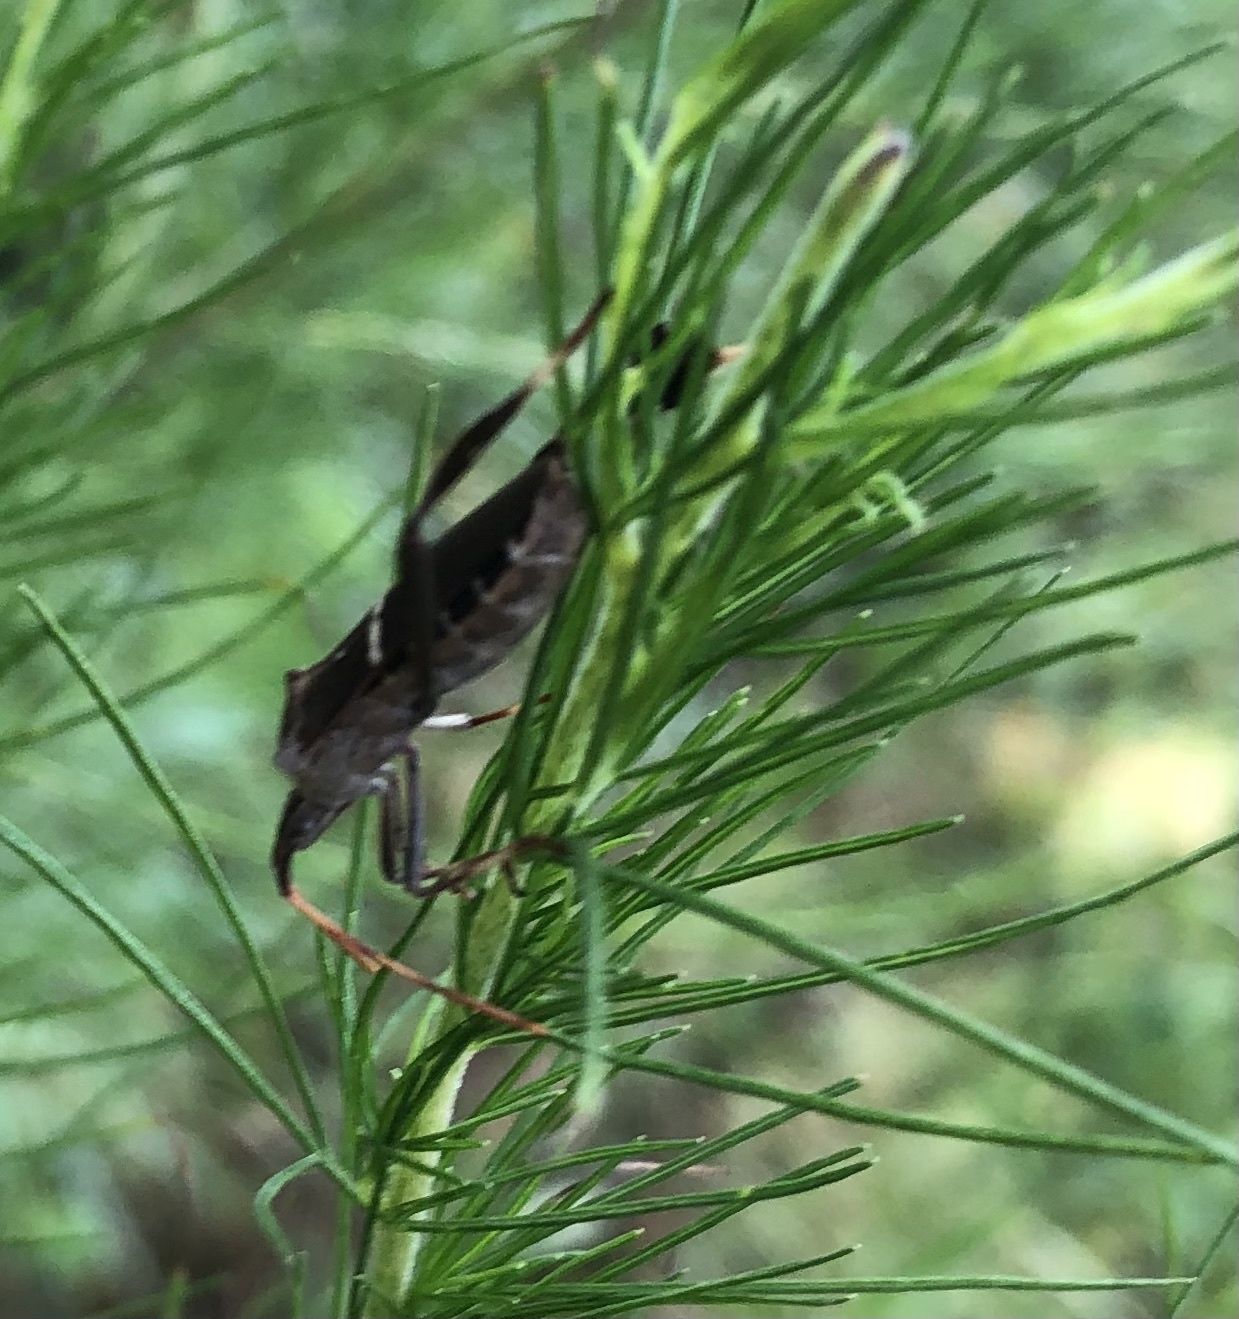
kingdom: Animalia
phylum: Arthropoda
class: Insecta
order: Hemiptera
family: Coreidae
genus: Leptoglossus
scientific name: Leptoglossus phyllopus
